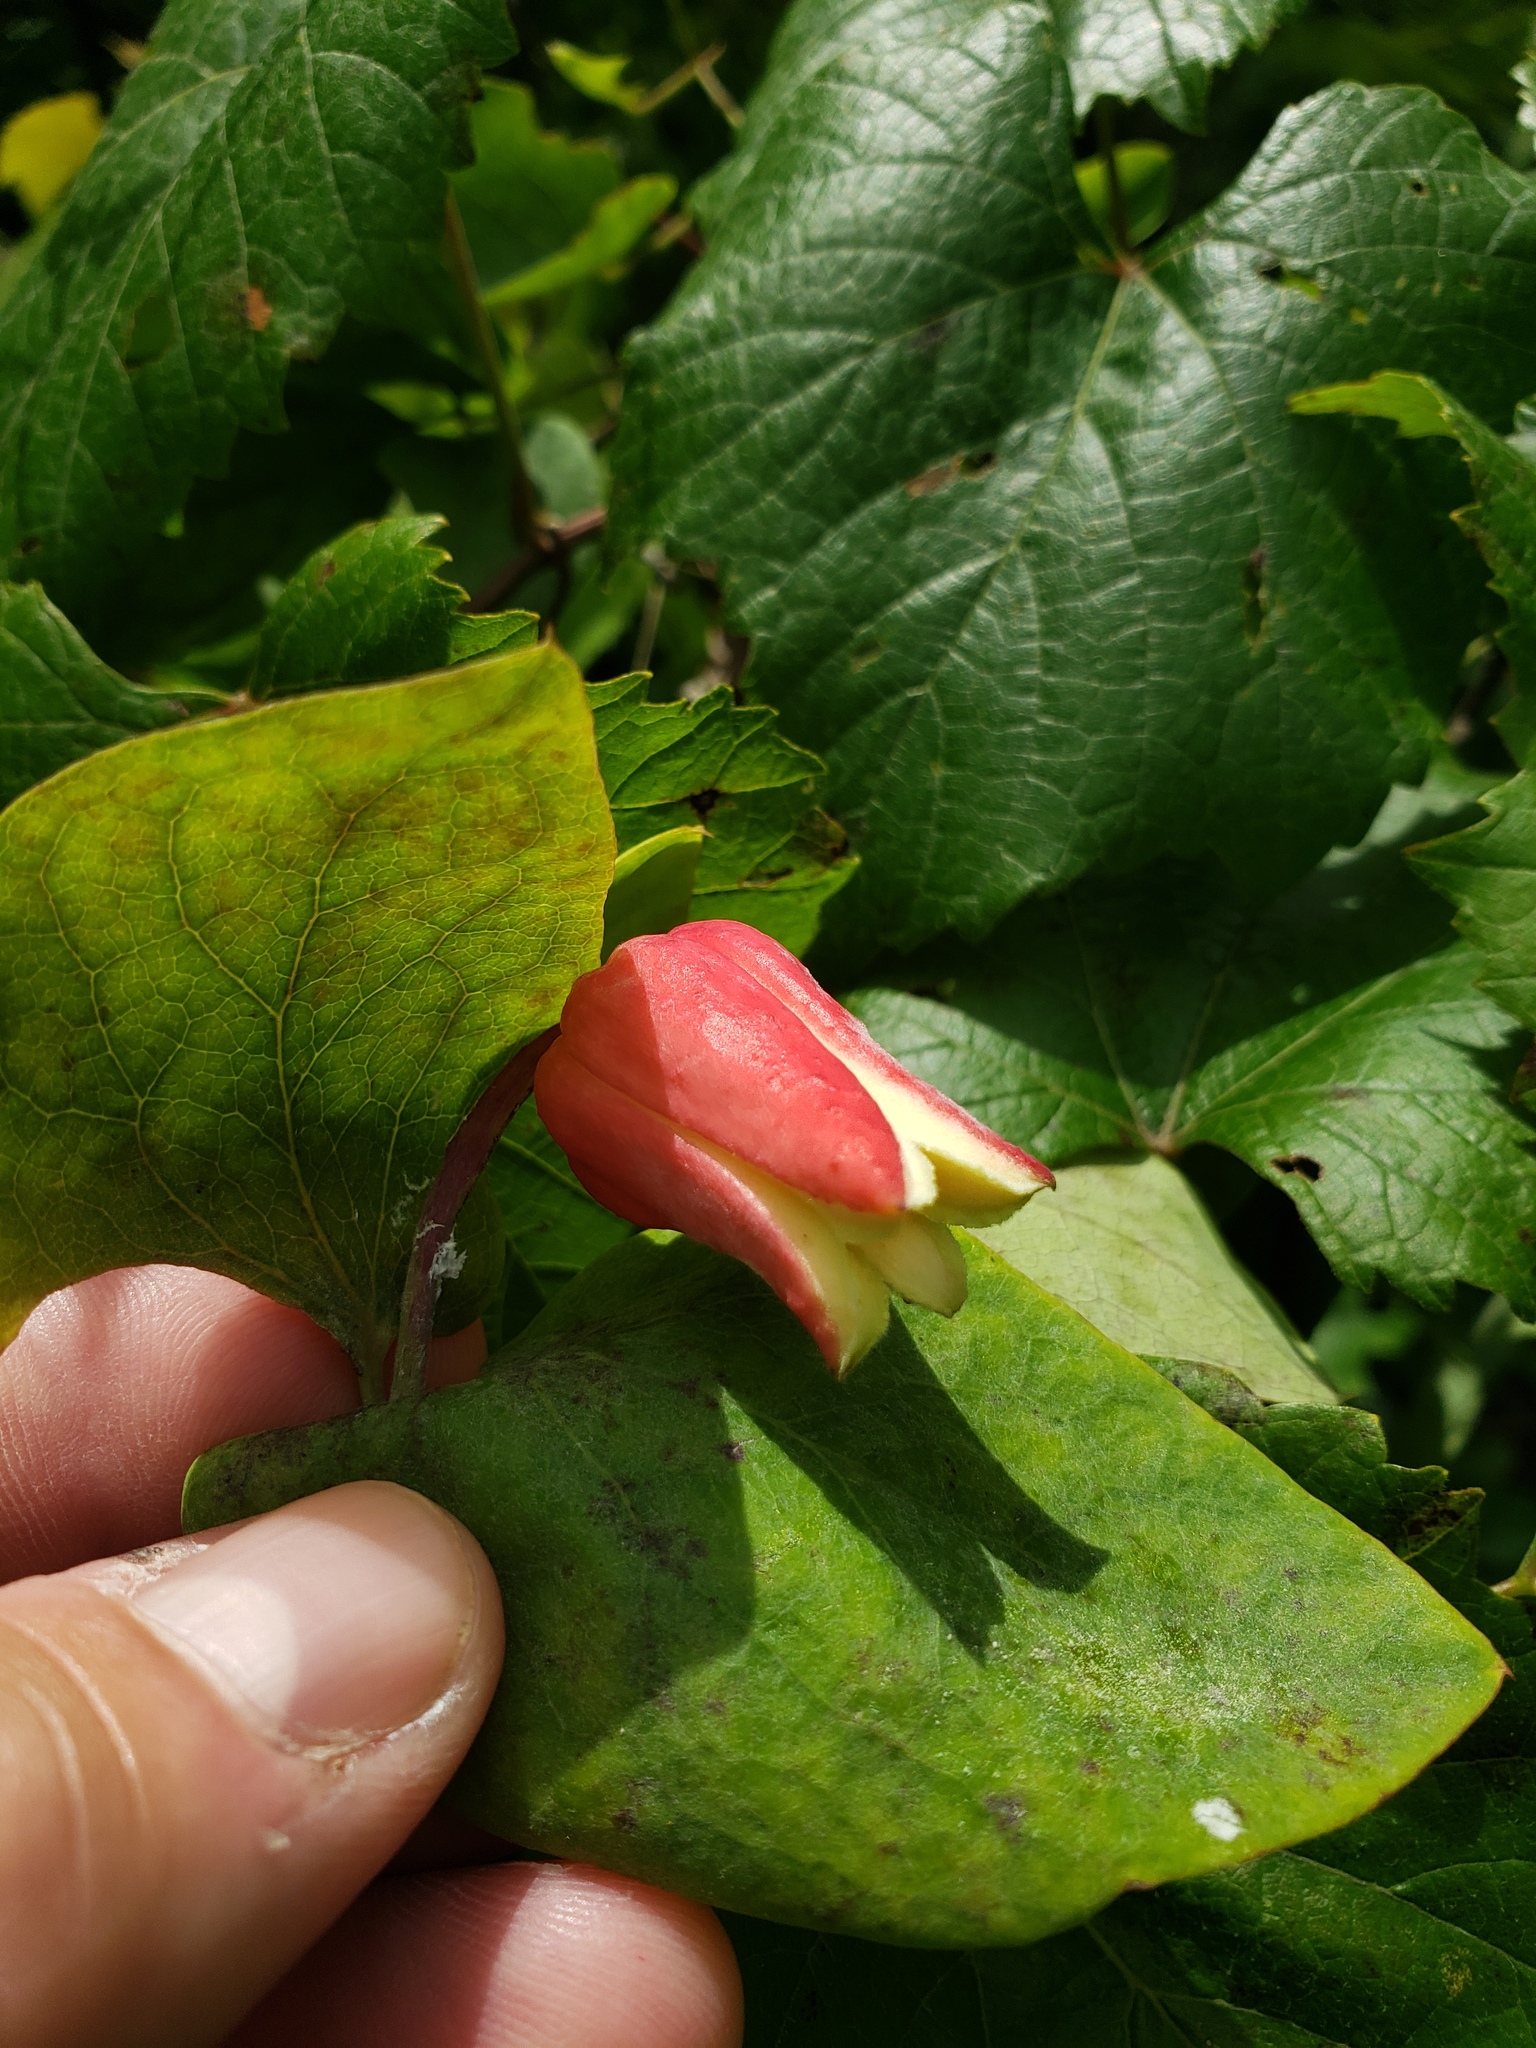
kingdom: Plantae
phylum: Tracheophyta
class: Magnoliopsida
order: Ranunculales
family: Ranunculaceae
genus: Clematis
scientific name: Clematis texensis
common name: Crimson clematis
